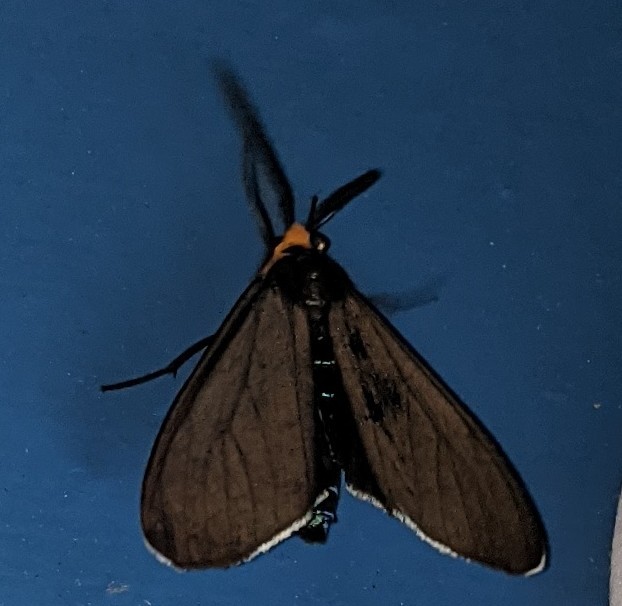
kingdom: Animalia
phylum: Arthropoda
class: Insecta
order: Lepidoptera
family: Erebidae
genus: Ctenucha
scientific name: Ctenucha virginica
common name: Virginia ctenucha moth
